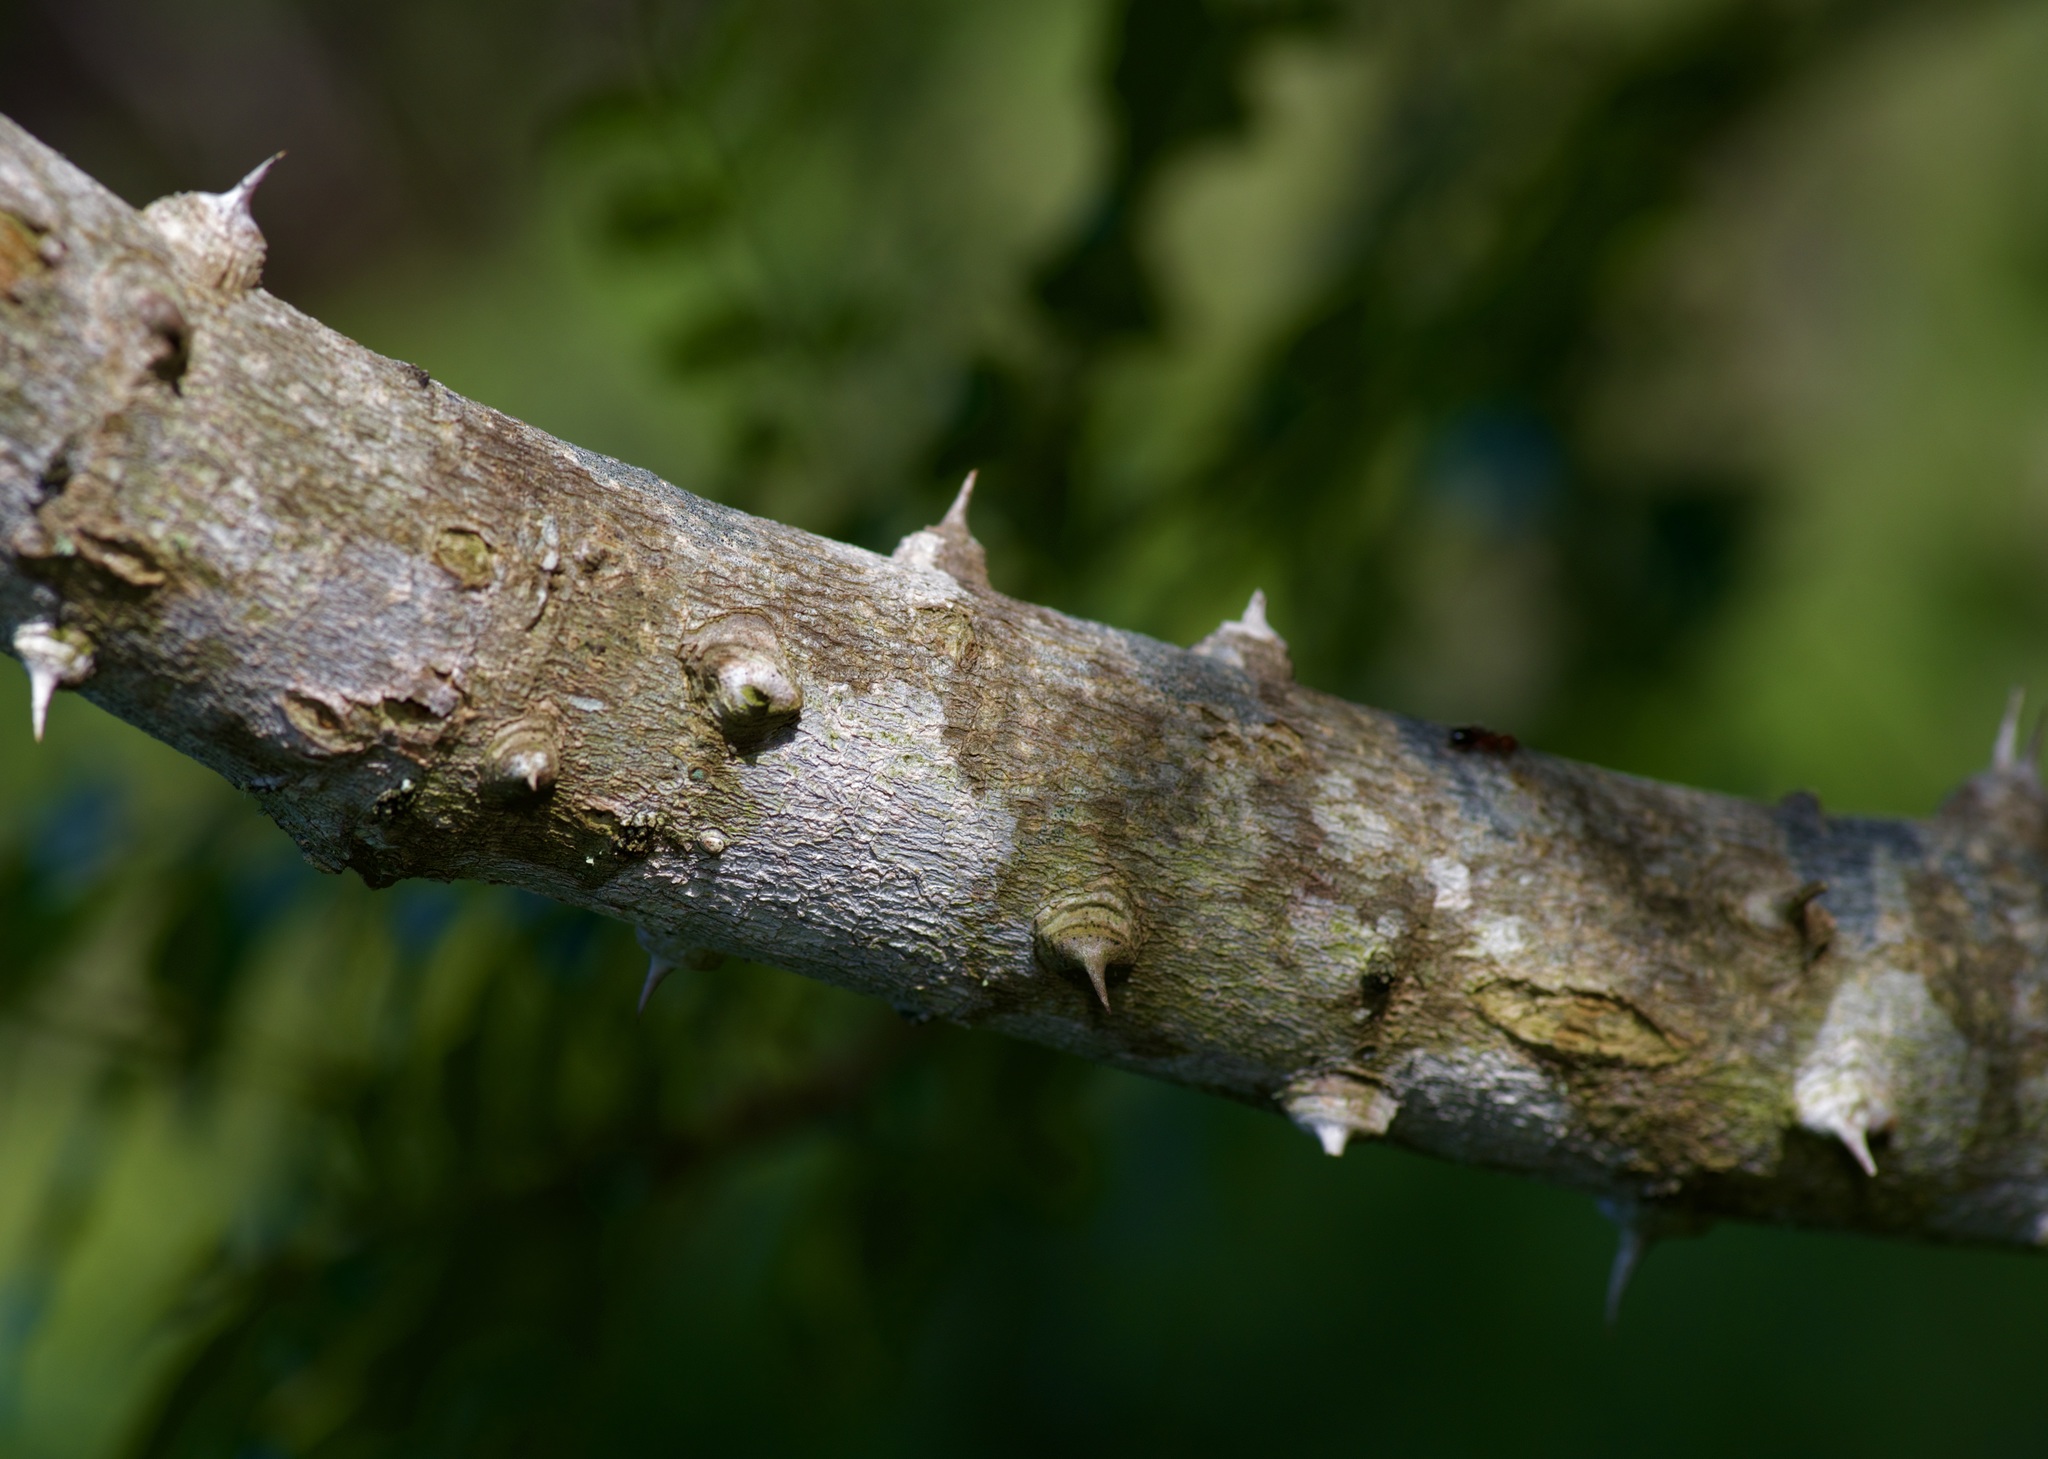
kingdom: Plantae
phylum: Tracheophyta
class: Magnoliopsida
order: Sapindales
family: Rutaceae
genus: Zanthoxylum
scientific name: Zanthoxylum clava-herculis
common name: Hercules'-club
